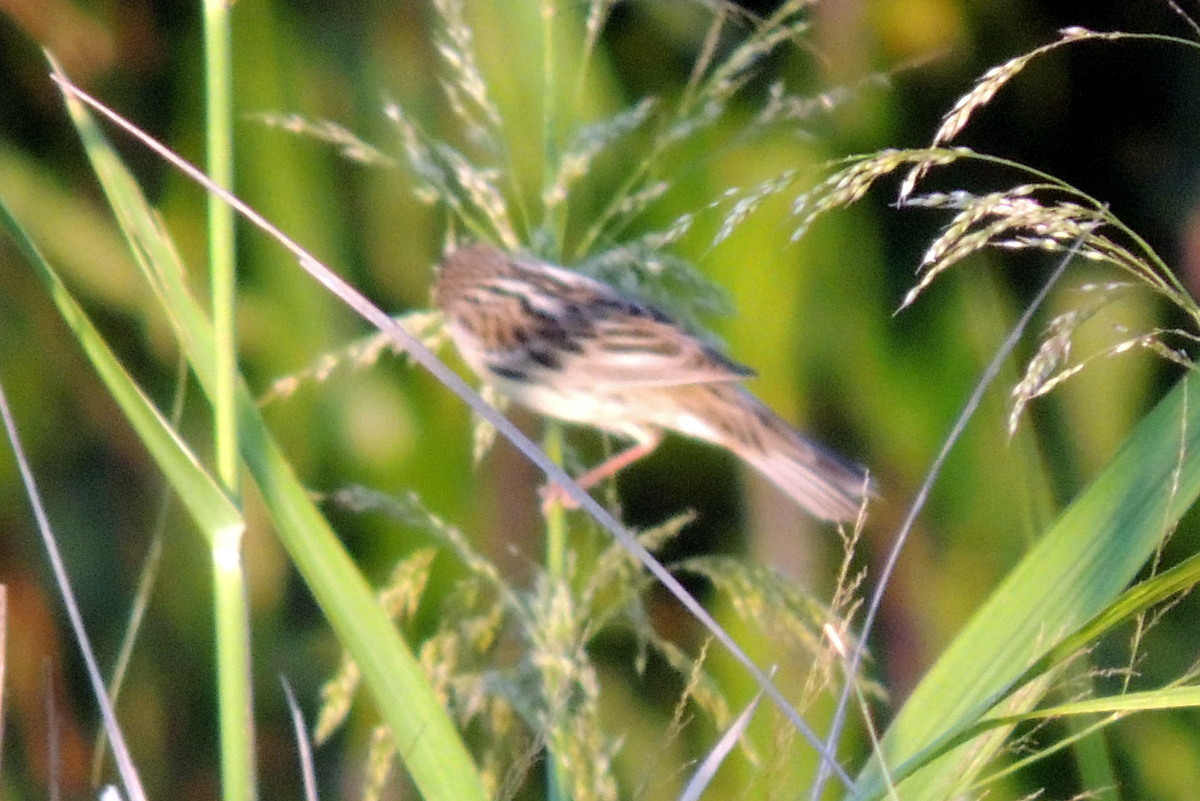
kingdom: Animalia
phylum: Chordata
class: Aves
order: Passeriformes
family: Icteridae
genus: Dolichonyx
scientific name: Dolichonyx oryzivorus
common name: Bobolink
